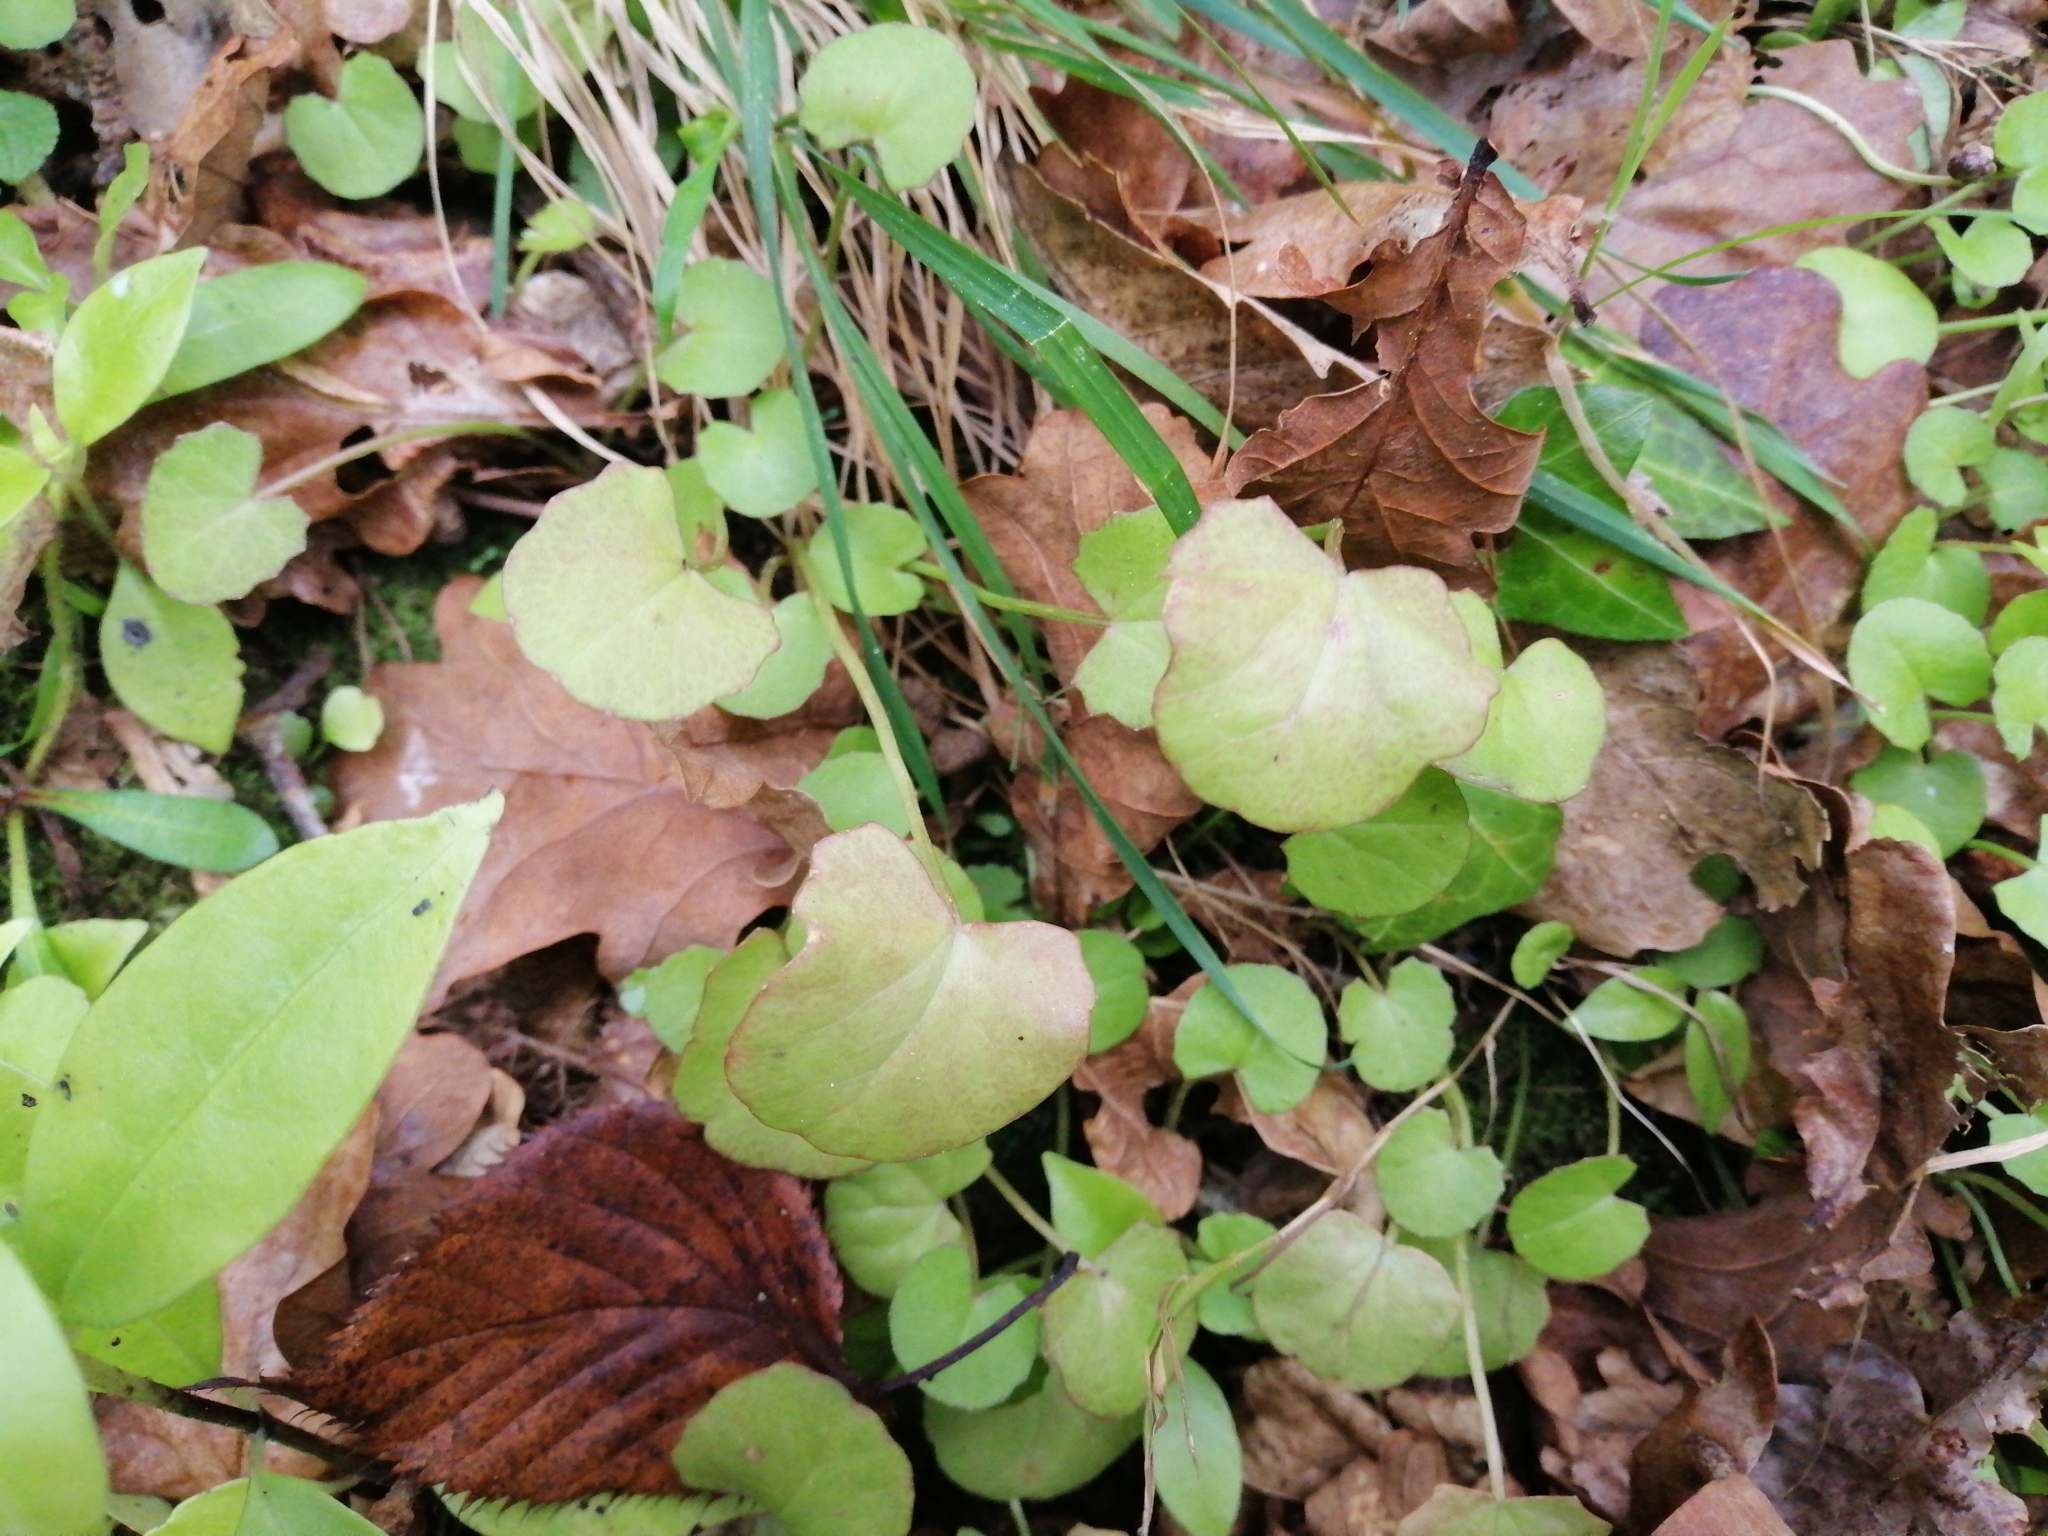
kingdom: Plantae
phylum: Tracheophyta
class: Magnoliopsida
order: Apiales
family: Apiaceae
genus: Centella
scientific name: Centella uniflora
